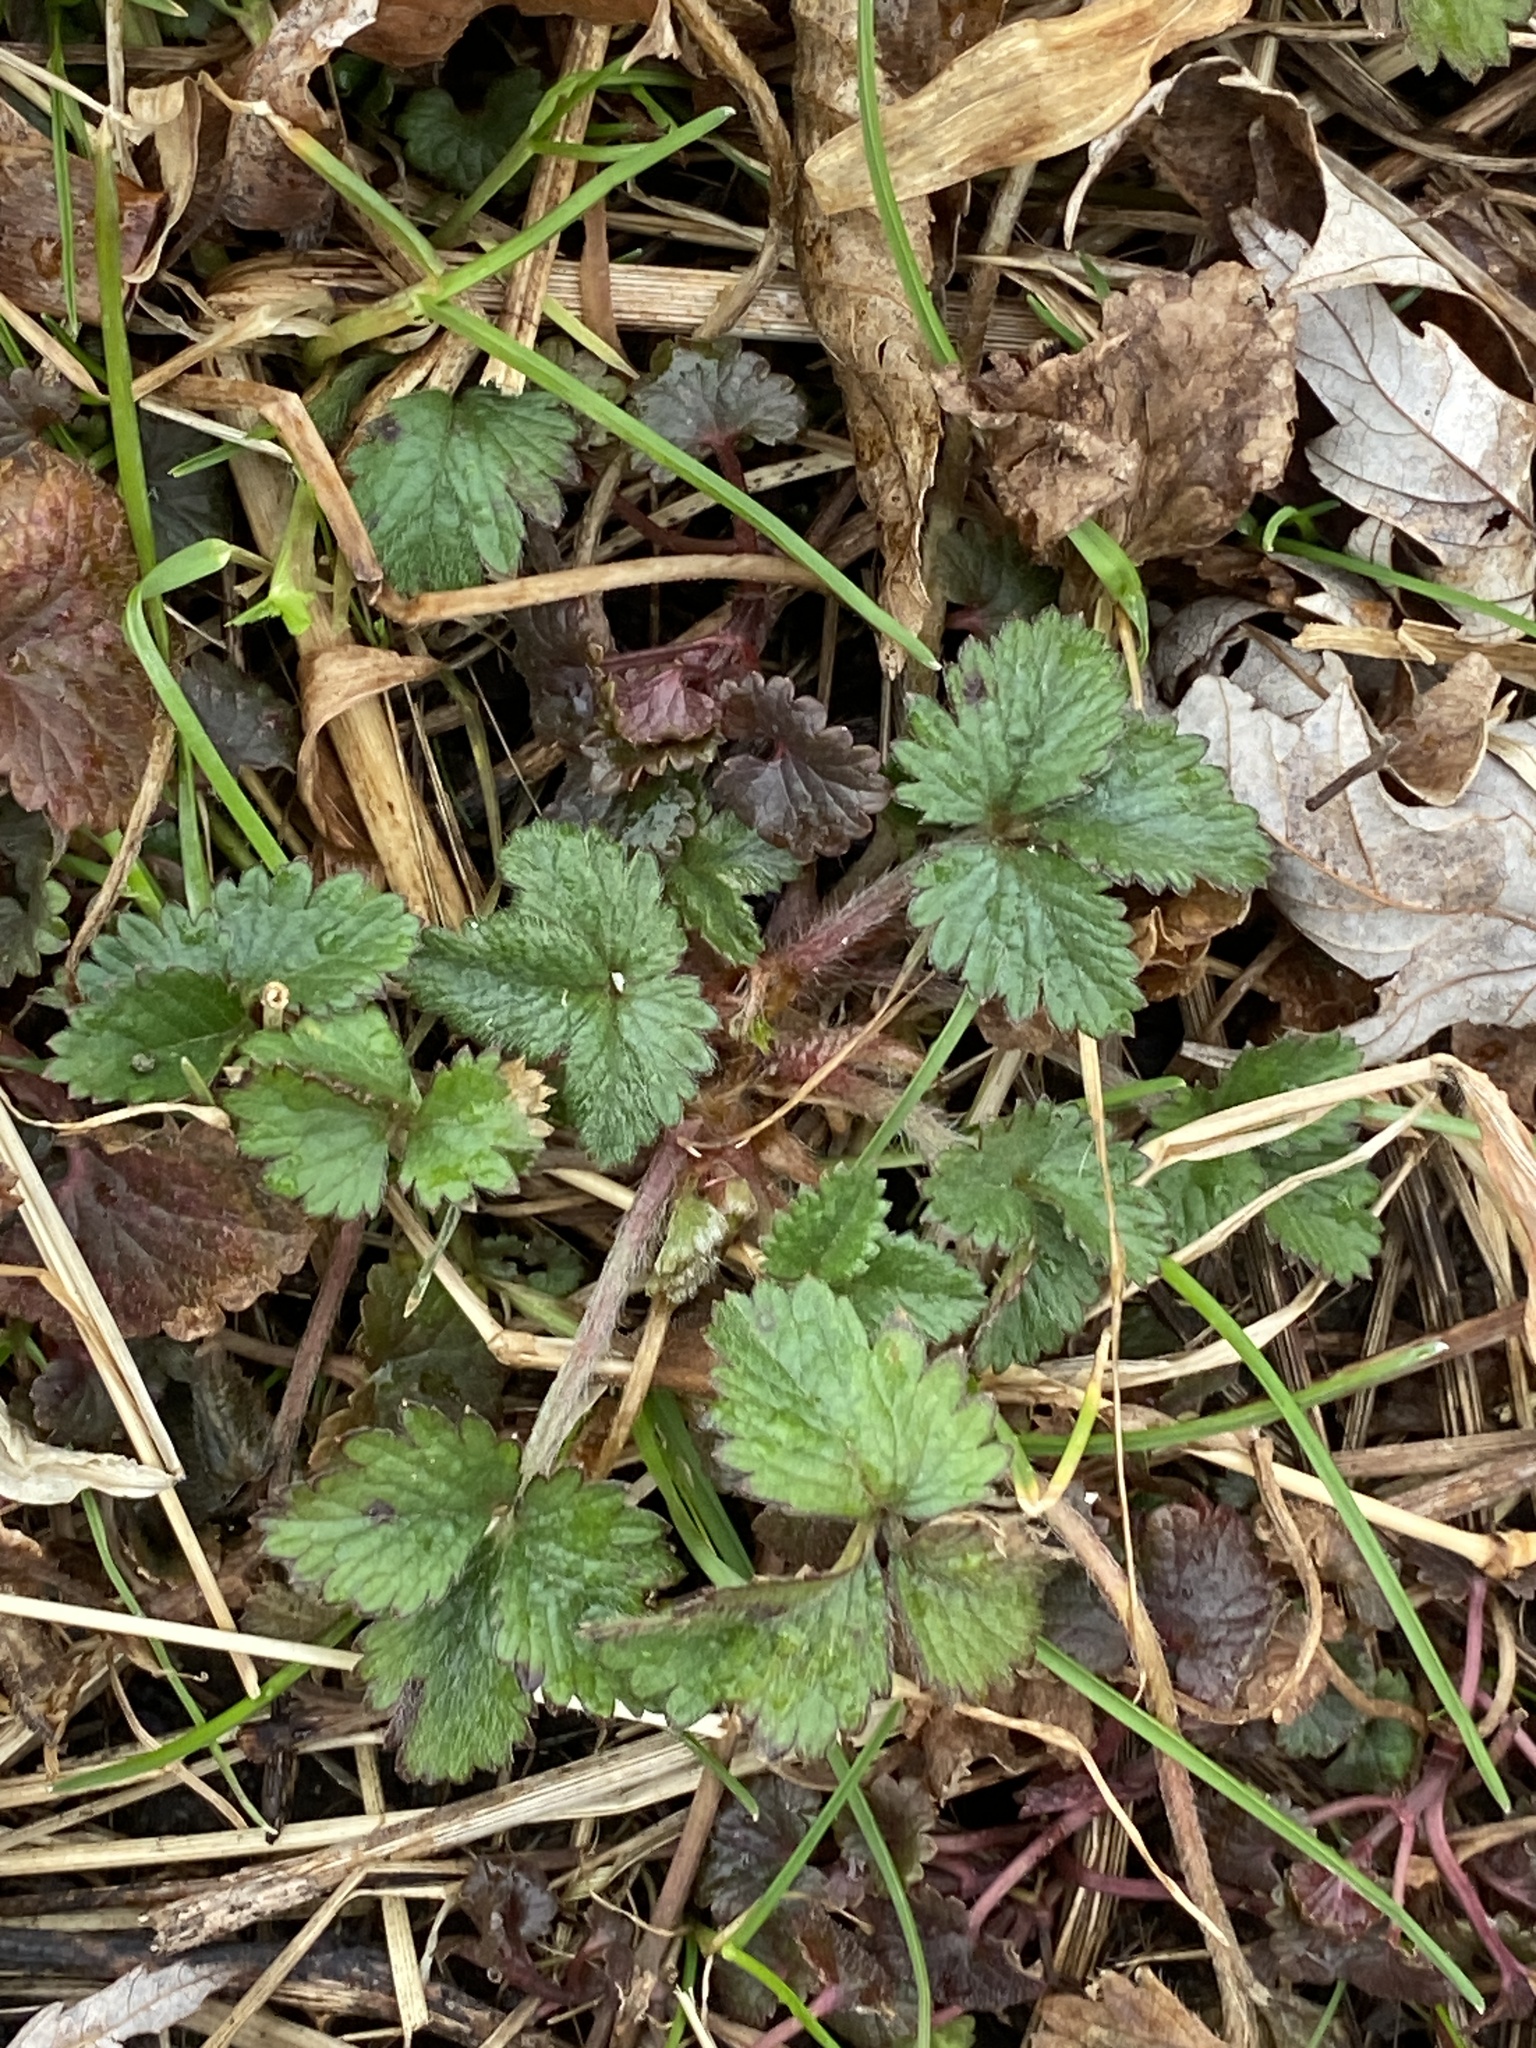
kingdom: Plantae
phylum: Tracheophyta
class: Magnoliopsida
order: Rosales
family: Rosaceae
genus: Potentilla
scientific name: Potentilla indica
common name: Yellow-flowered strawberry
